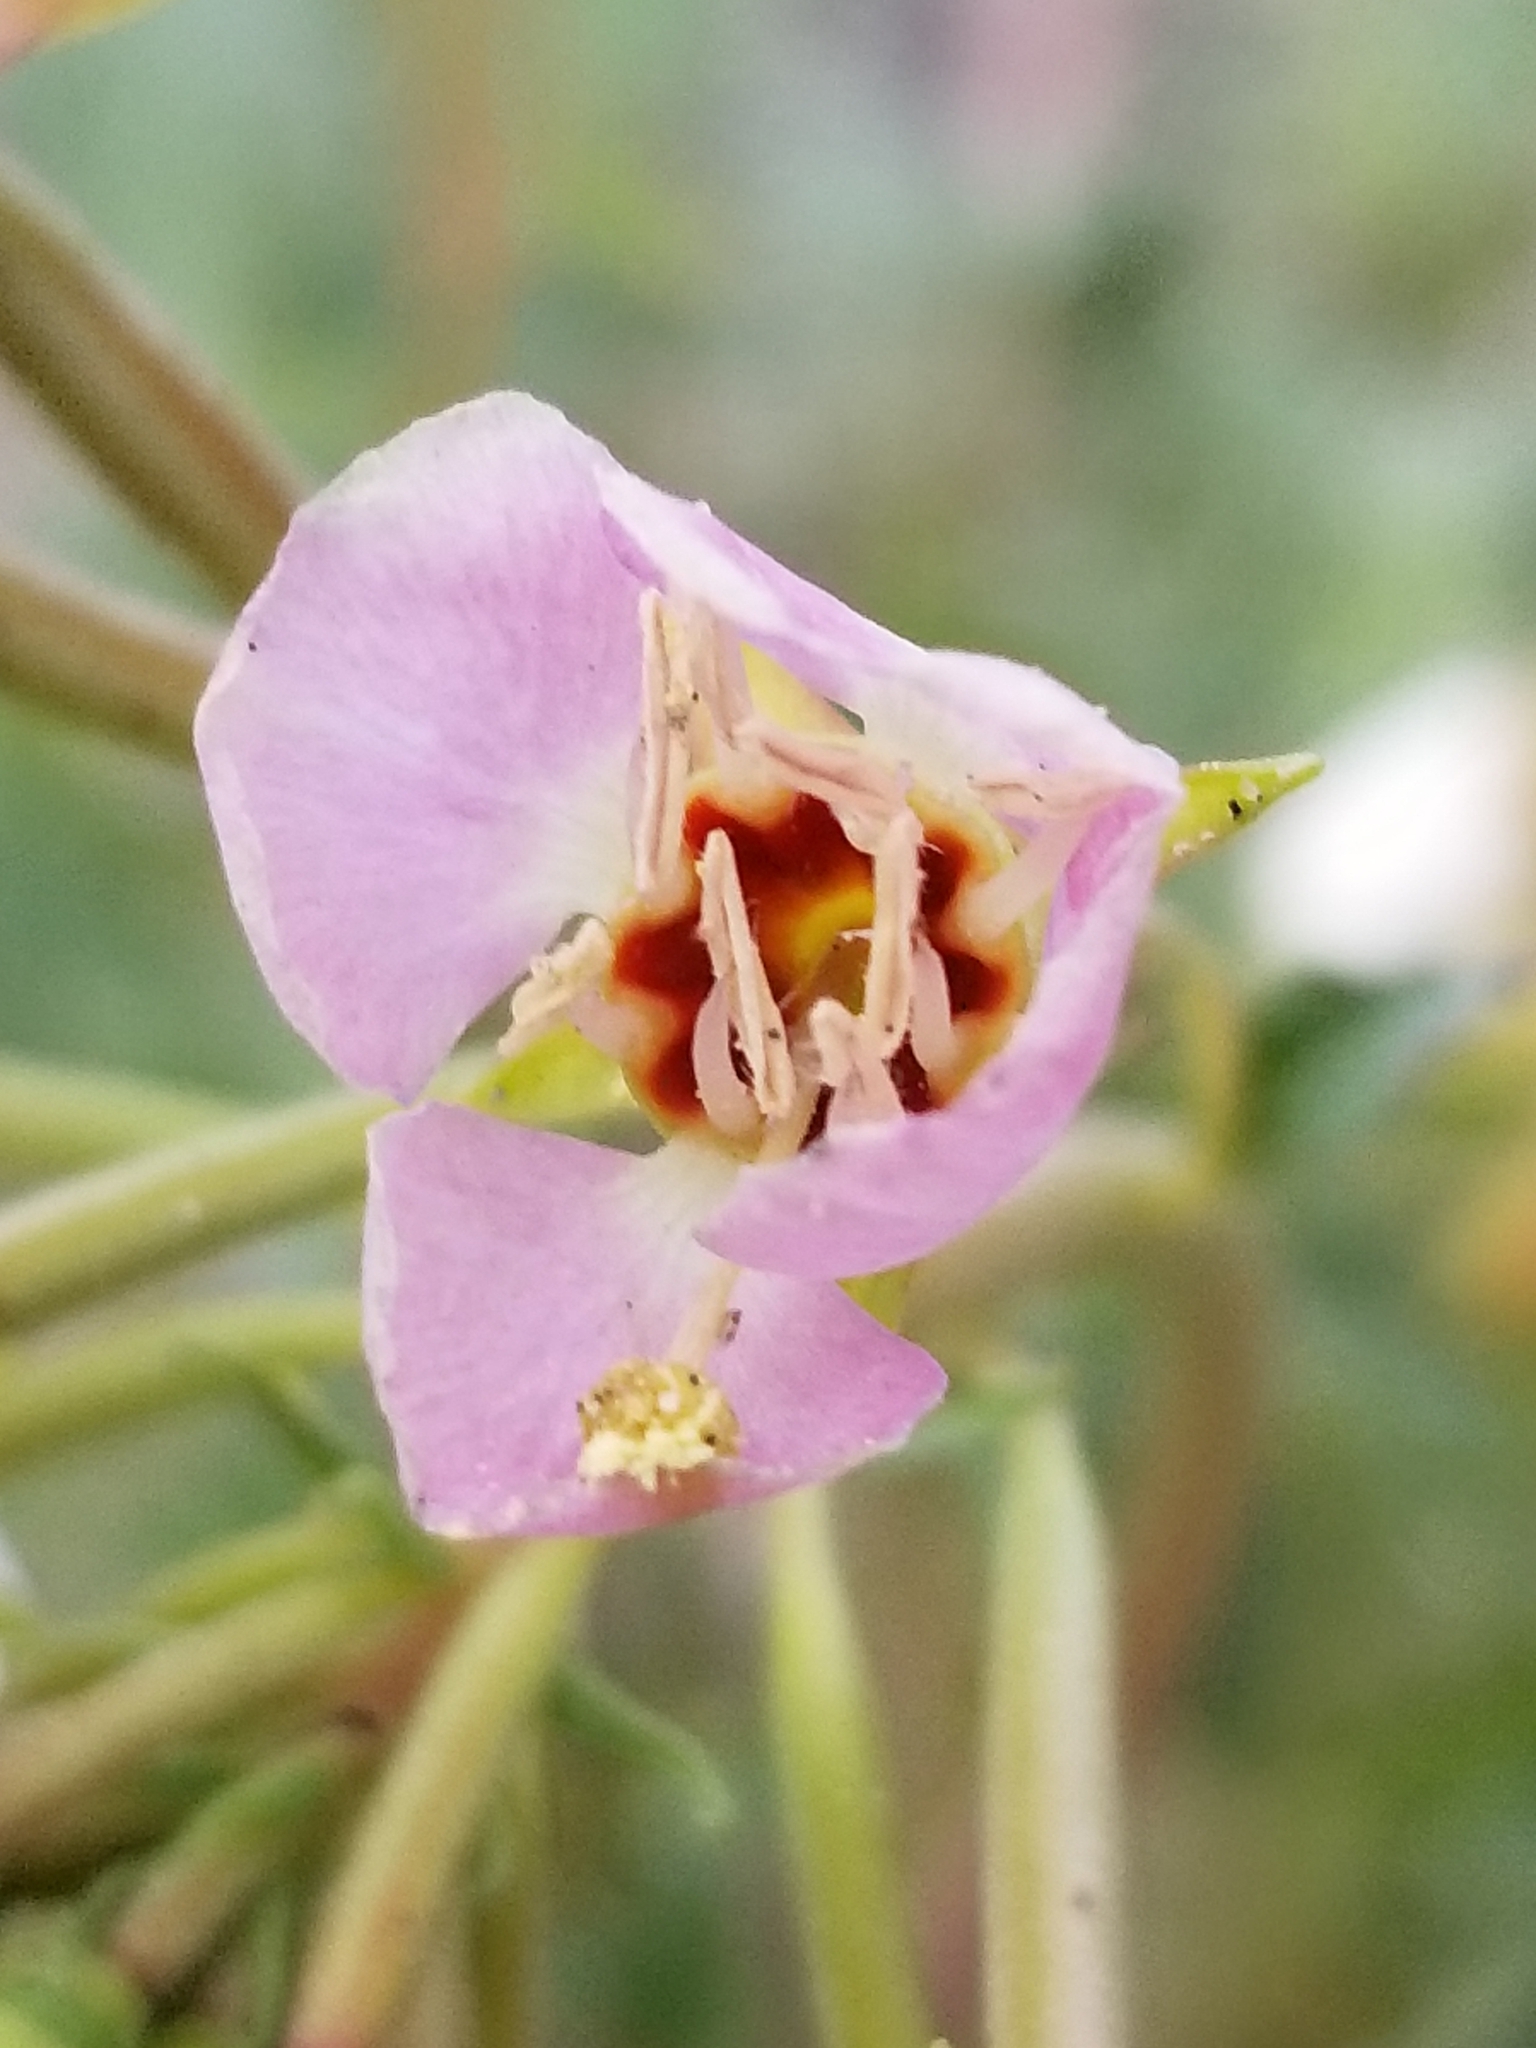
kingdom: Plantae
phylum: Tracheophyta
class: Magnoliopsida
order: Myrtales
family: Onagraceae
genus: Chylismia
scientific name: Chylismia claviformis
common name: Browneyes
